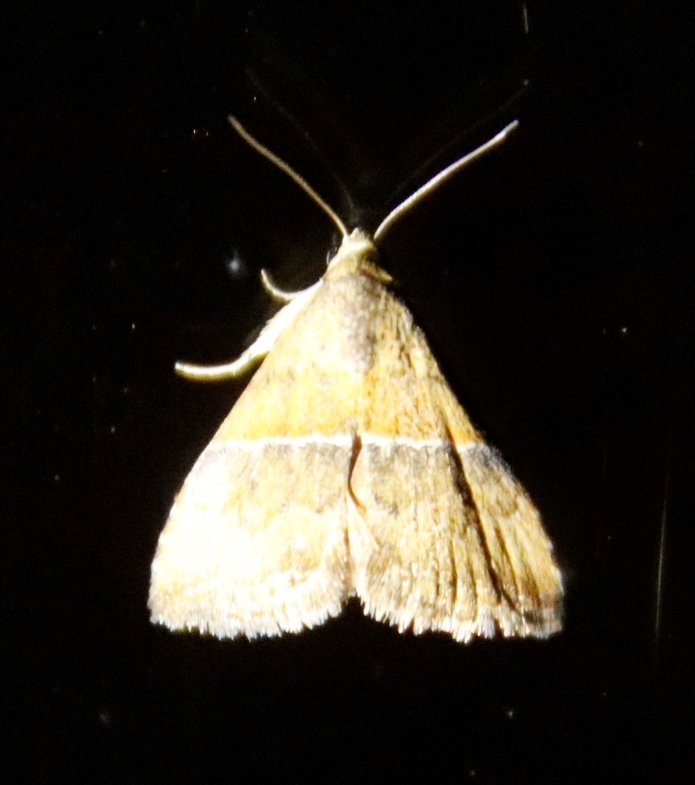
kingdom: Animalia
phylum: Arthropoda
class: Insecta
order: Lepidoptera
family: Noctuidae
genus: Eublemma
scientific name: Eublemma caffrorum
